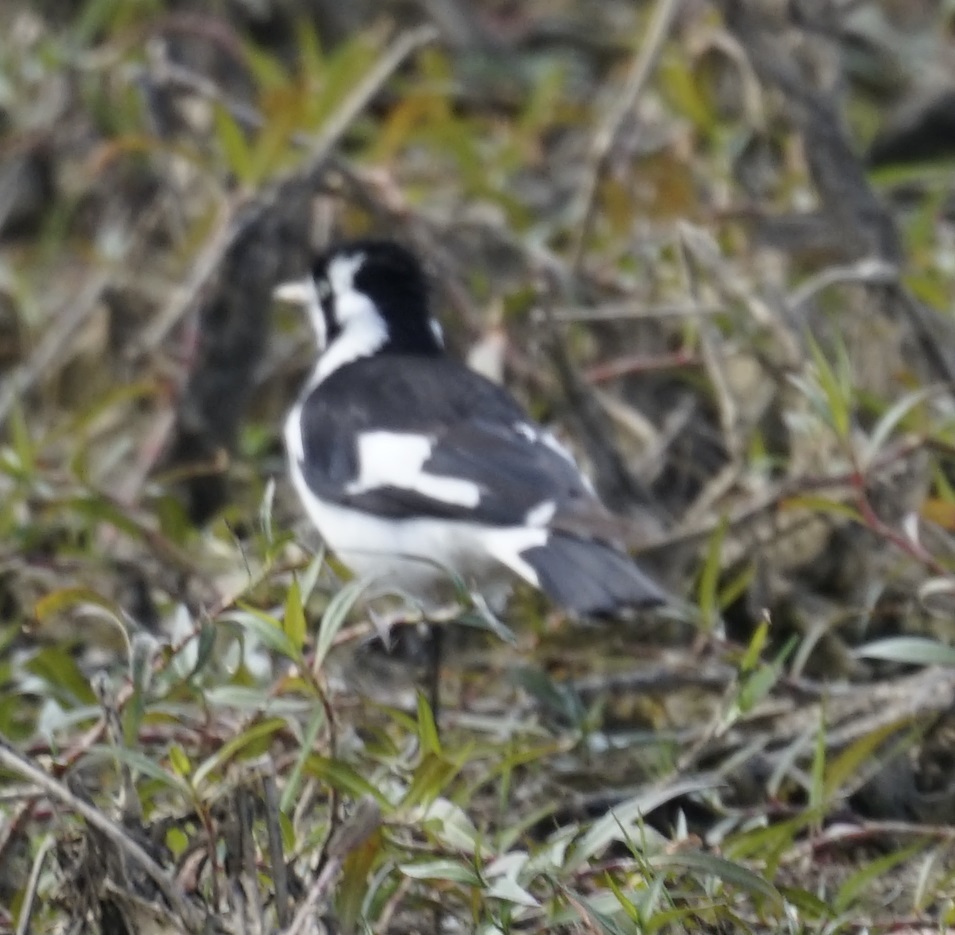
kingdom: Animalia
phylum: Chordata
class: Aves
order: Passeriformes
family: Monarchidae
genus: Grallina
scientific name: Grallina cyanoleuca
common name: Magpie-lark
